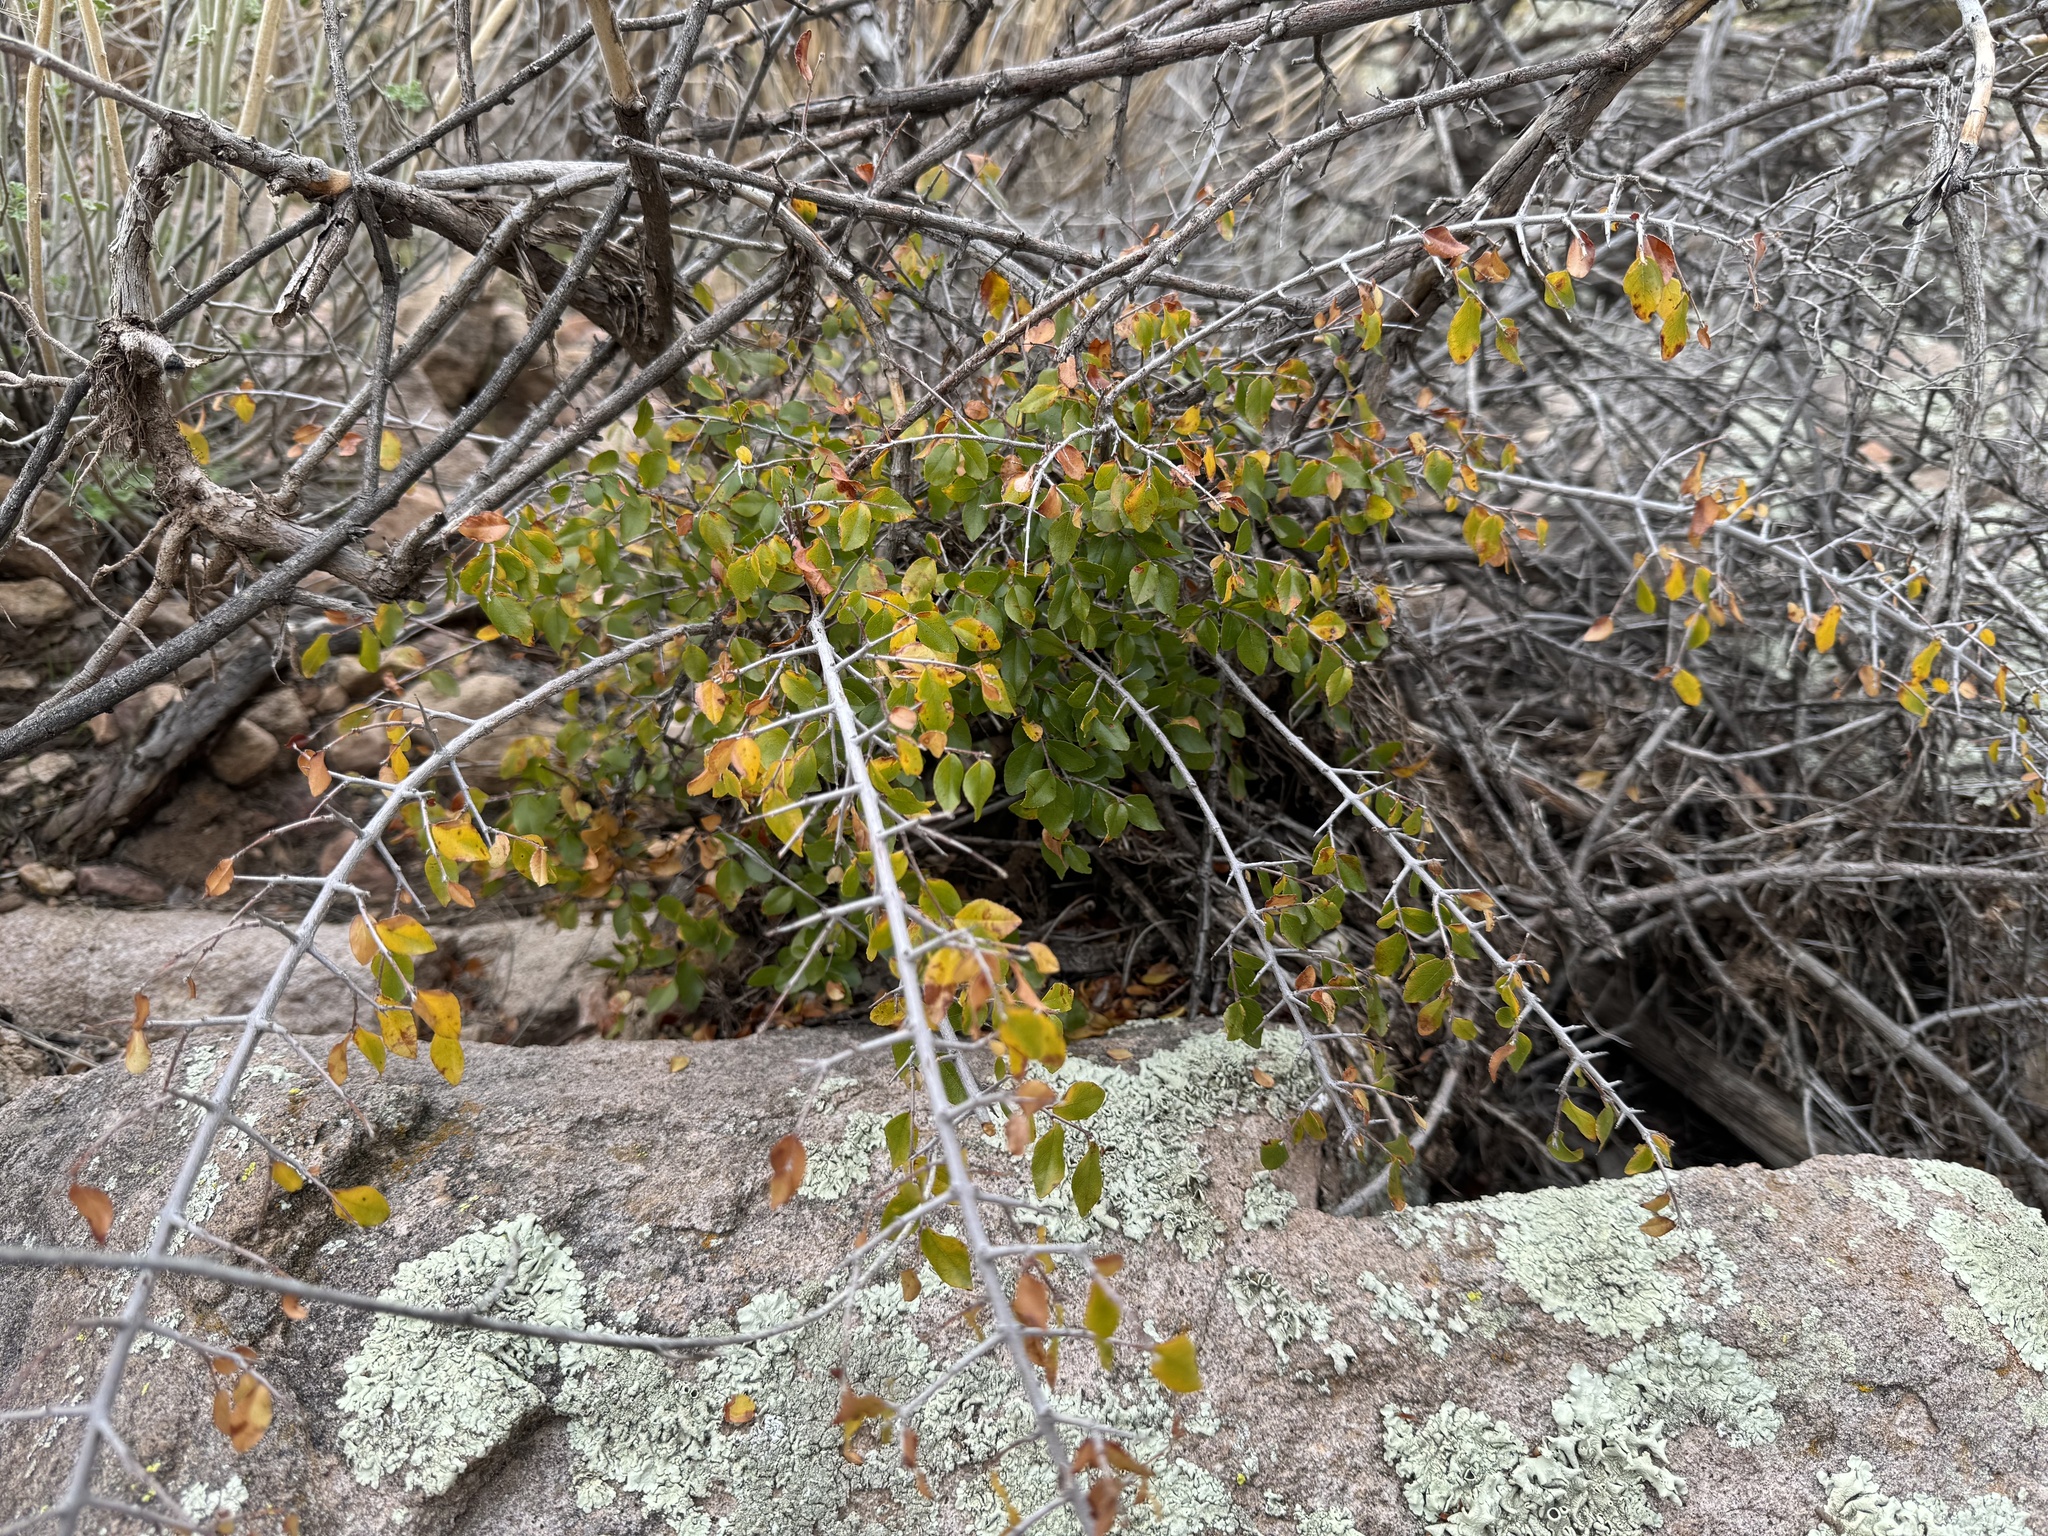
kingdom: Plantae
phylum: Tracheophyta
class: Magnoliopsida
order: Rosales
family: Rhamnaceae
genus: Sageretia
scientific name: Sageretia wrightii
